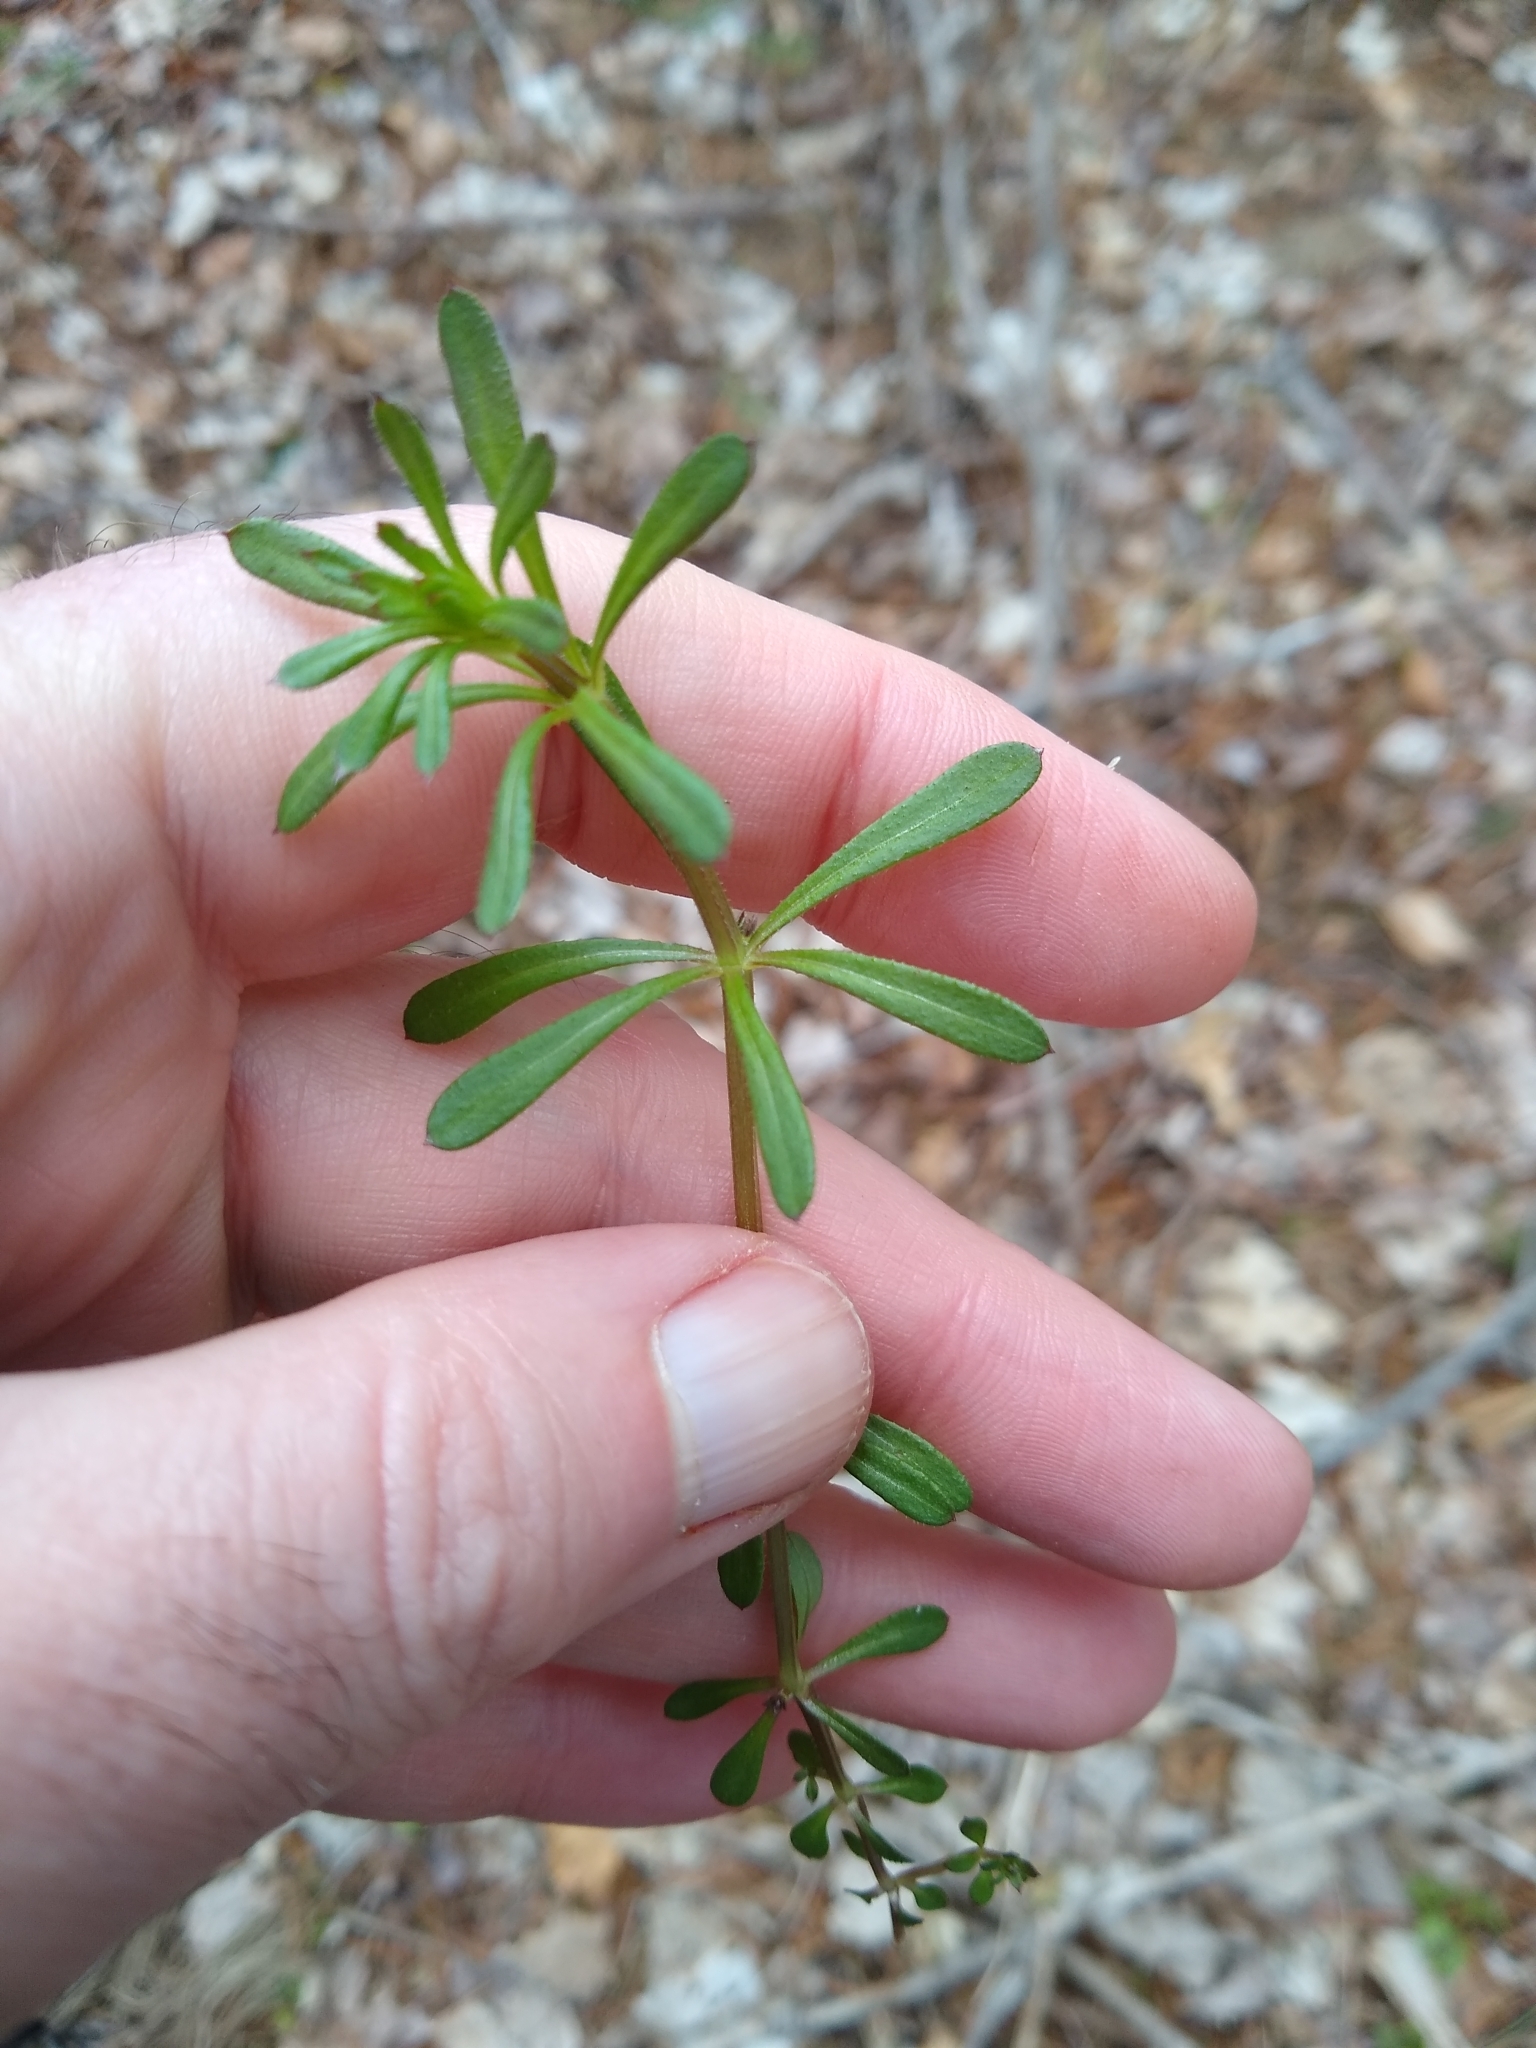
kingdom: Plantae
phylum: Tracheophyta
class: Magnoliopsida
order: Gentianales
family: Rubiaceae
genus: Galium
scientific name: Galium aparine
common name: Cleavers
